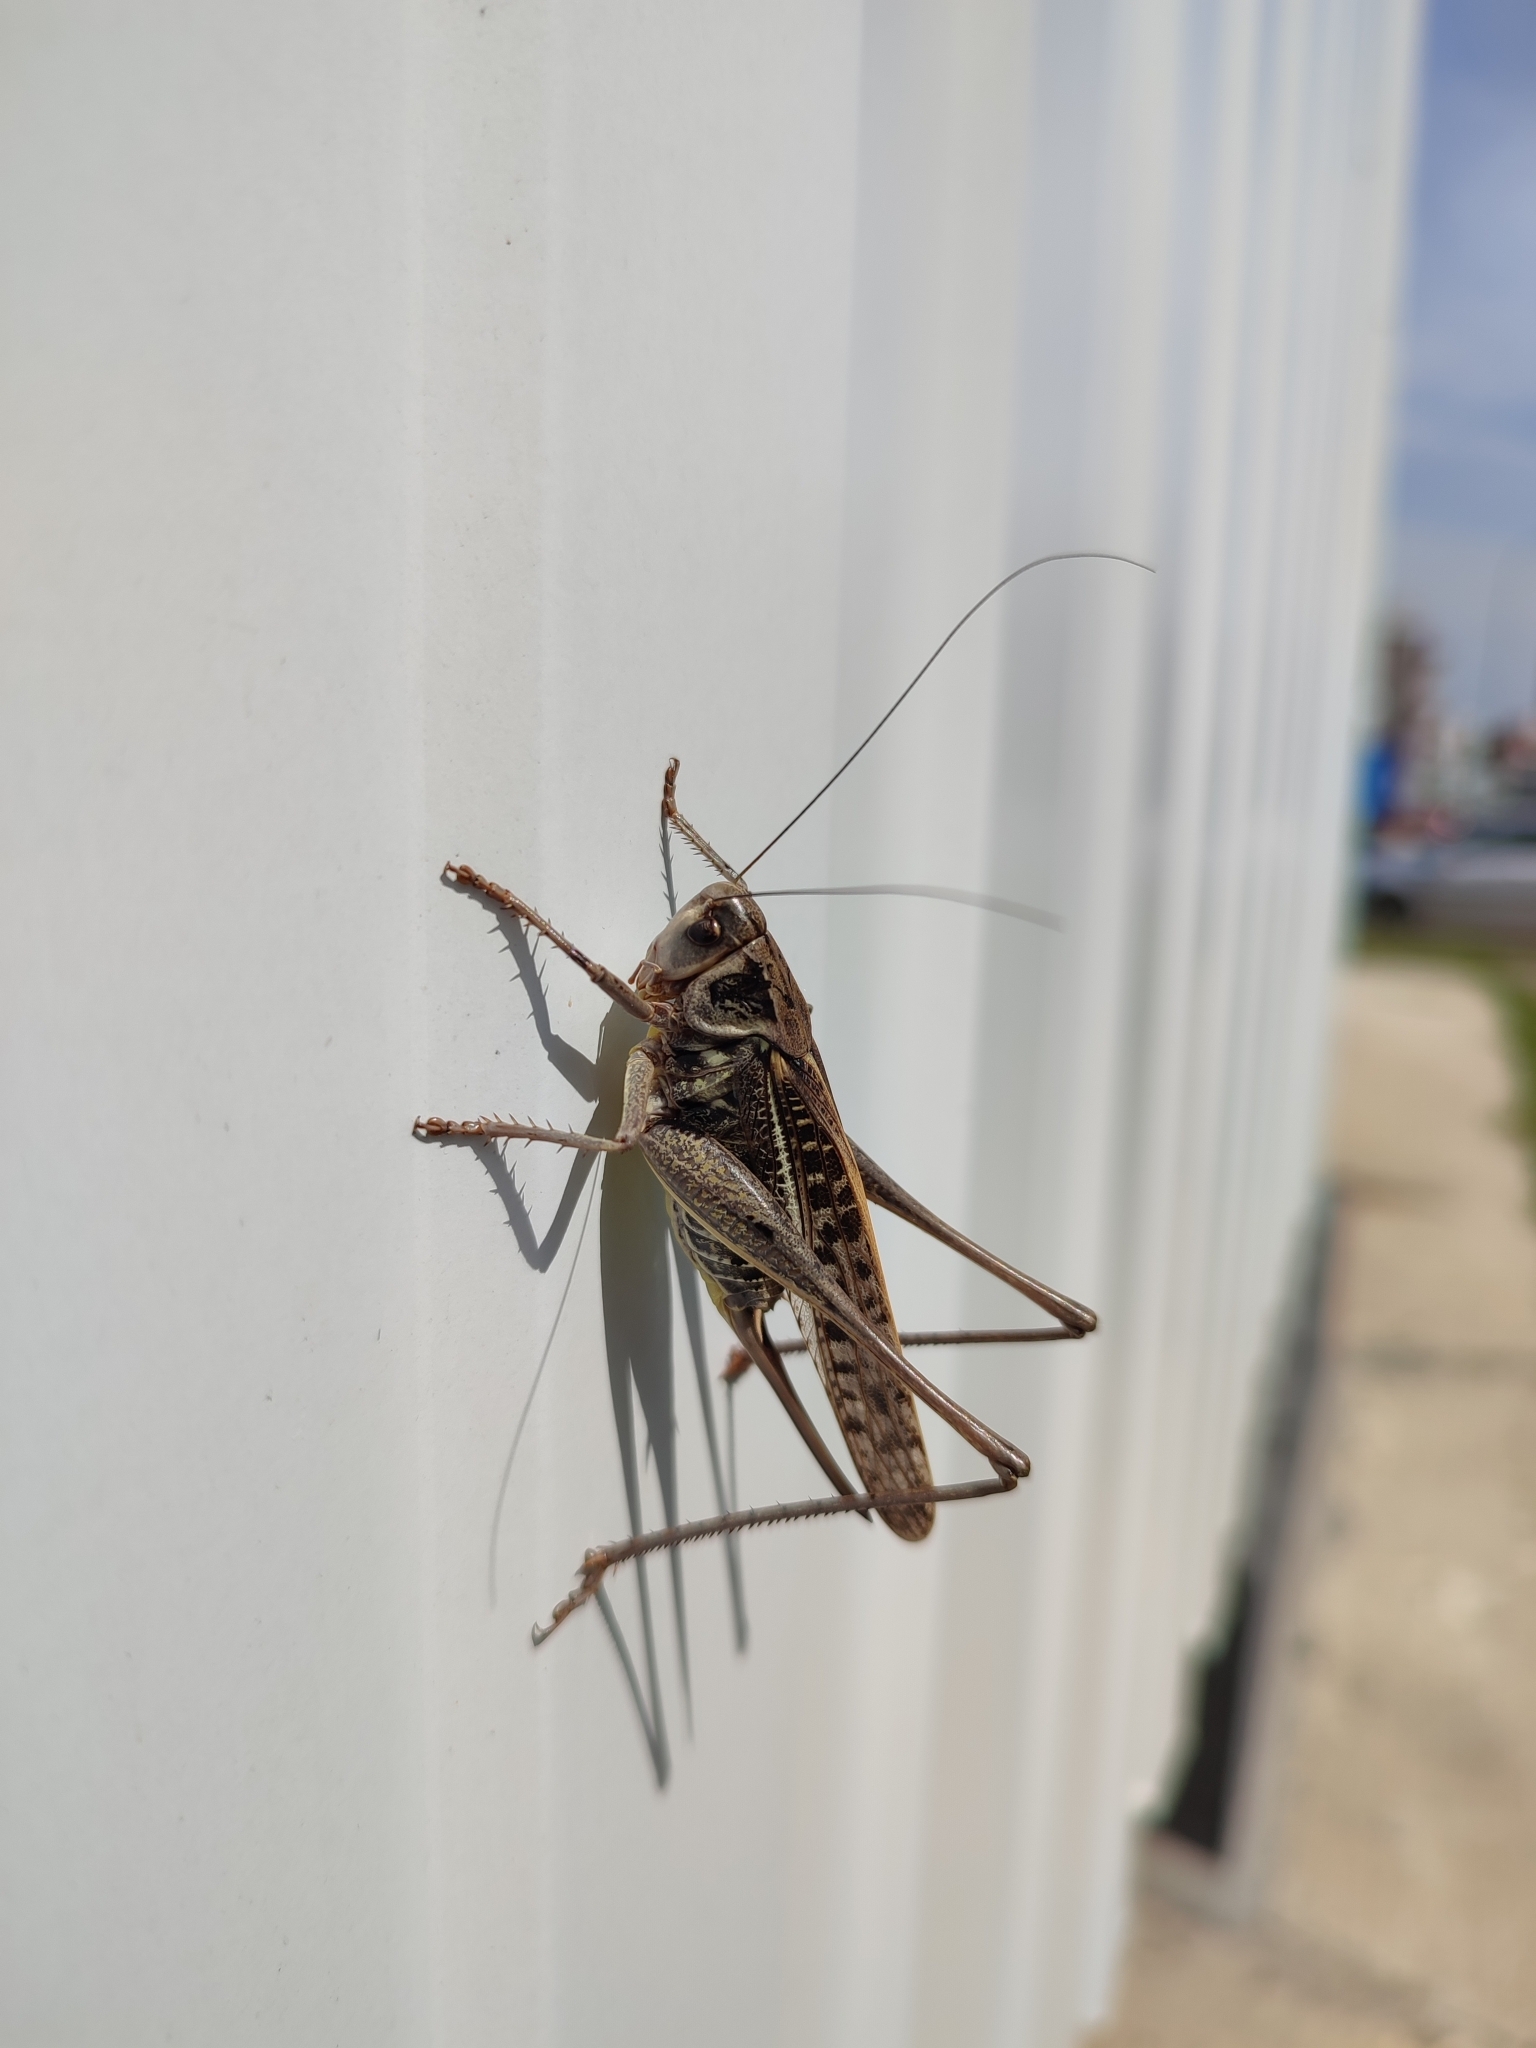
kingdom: Animalia
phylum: Arthropoda
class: Insecta
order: Orthoptera
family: Tettigoniidae
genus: Decticus
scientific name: Decticus verrucivorus
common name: Wart-biter
